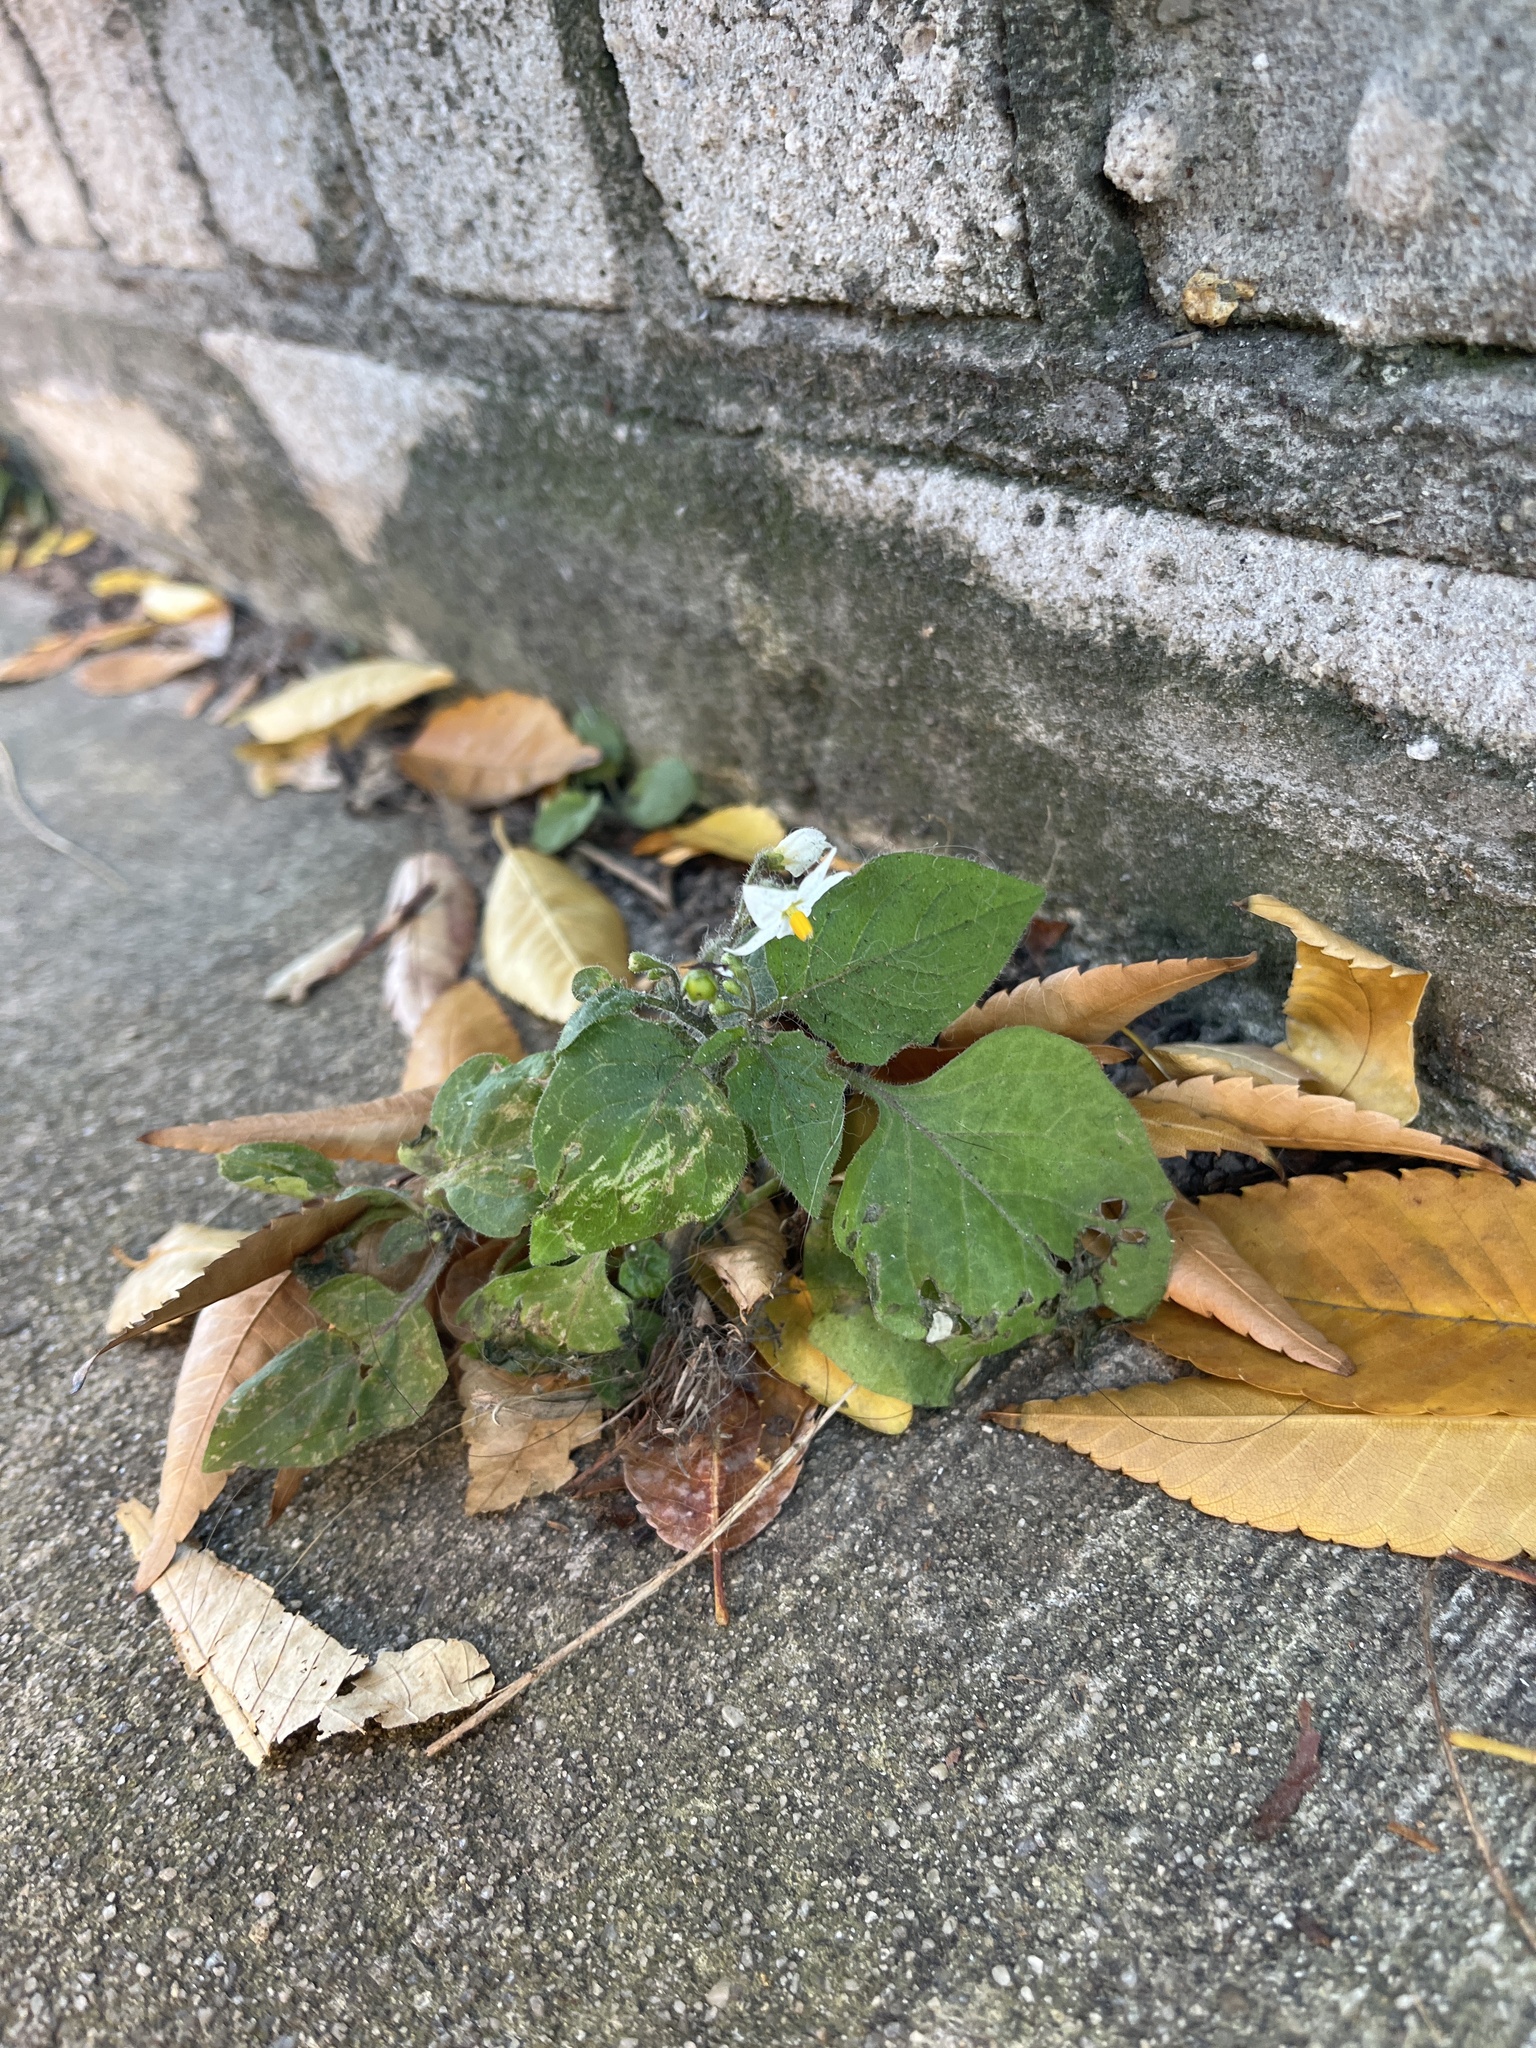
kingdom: Plantae
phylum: Tracheophyta
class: Magnoliopsida
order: Solanales
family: Solanaceae
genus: Solanum
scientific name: Solanum nigrum
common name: Black nightshade
